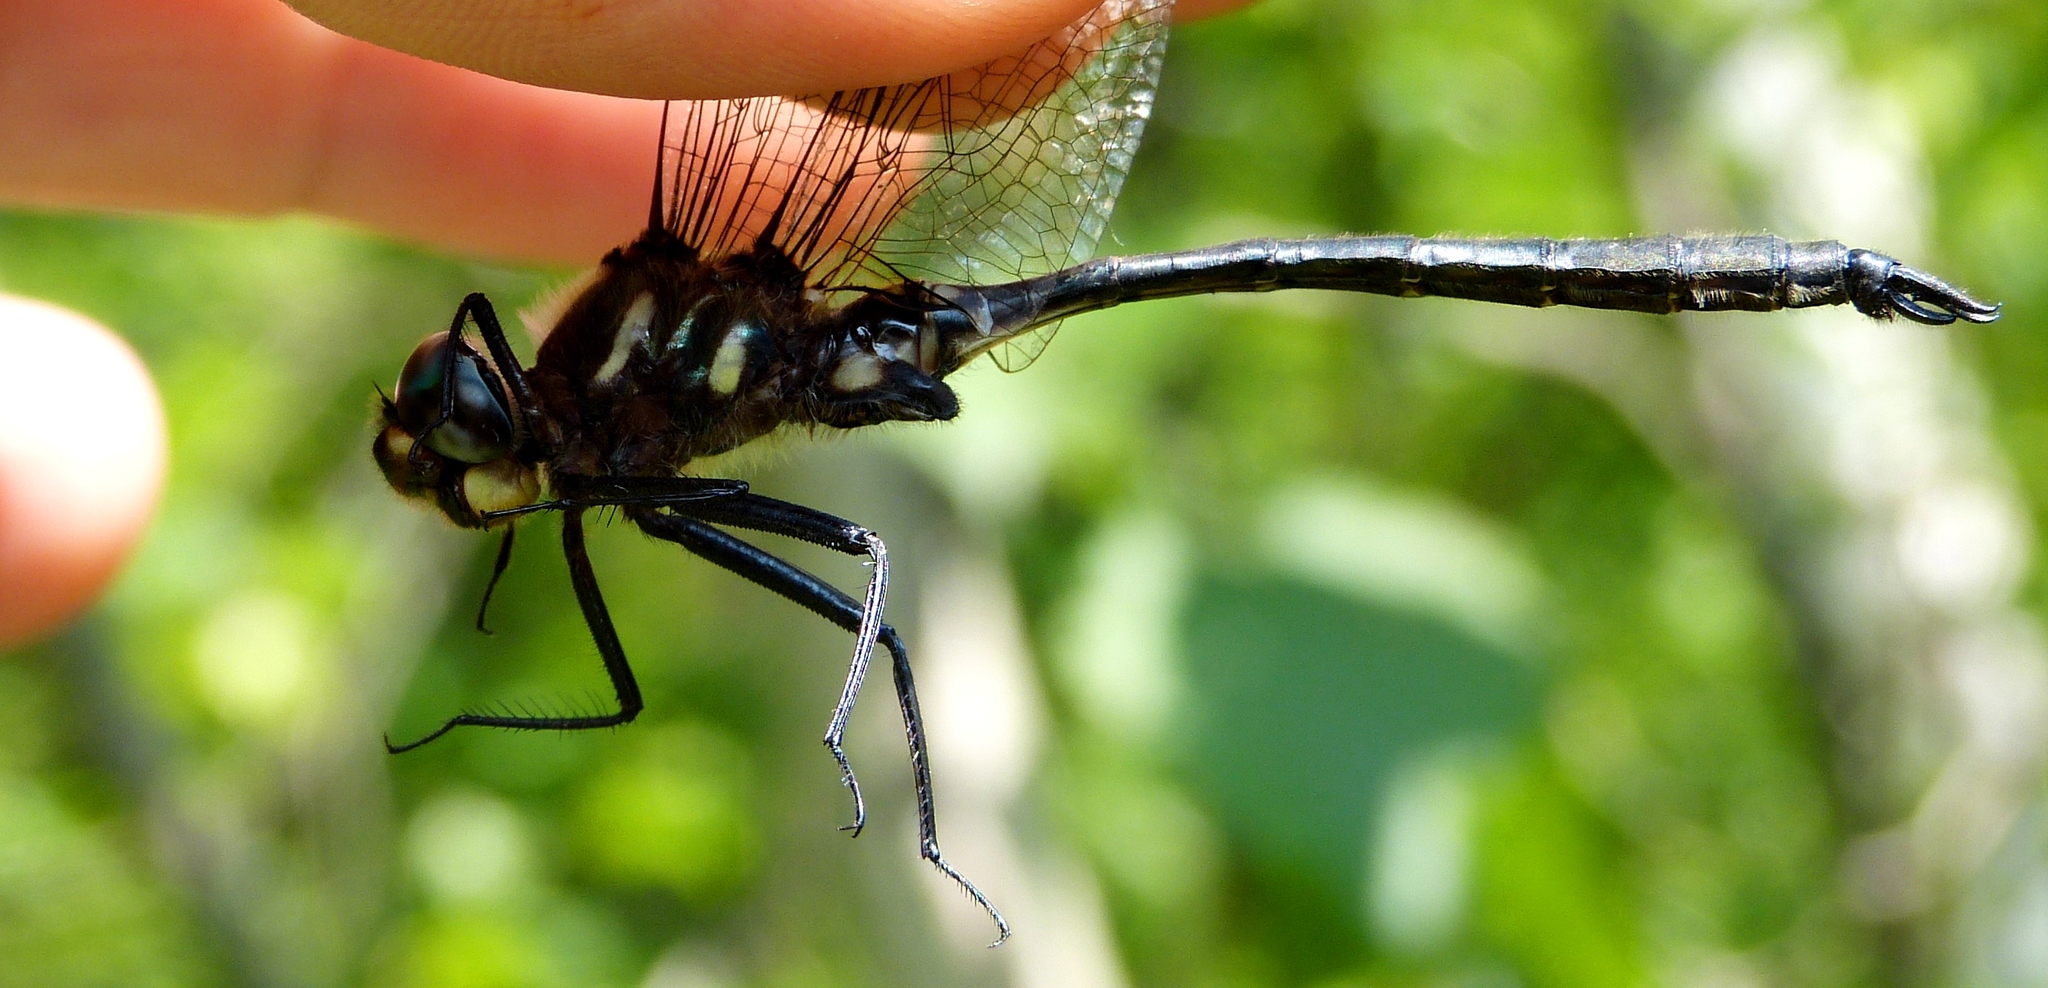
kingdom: Animalia
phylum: Arthropoda
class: Insecta
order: Odonata
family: Corduliidae
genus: Somatochlora
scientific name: Somatochlora elongata
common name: Ski-tipped emerald
